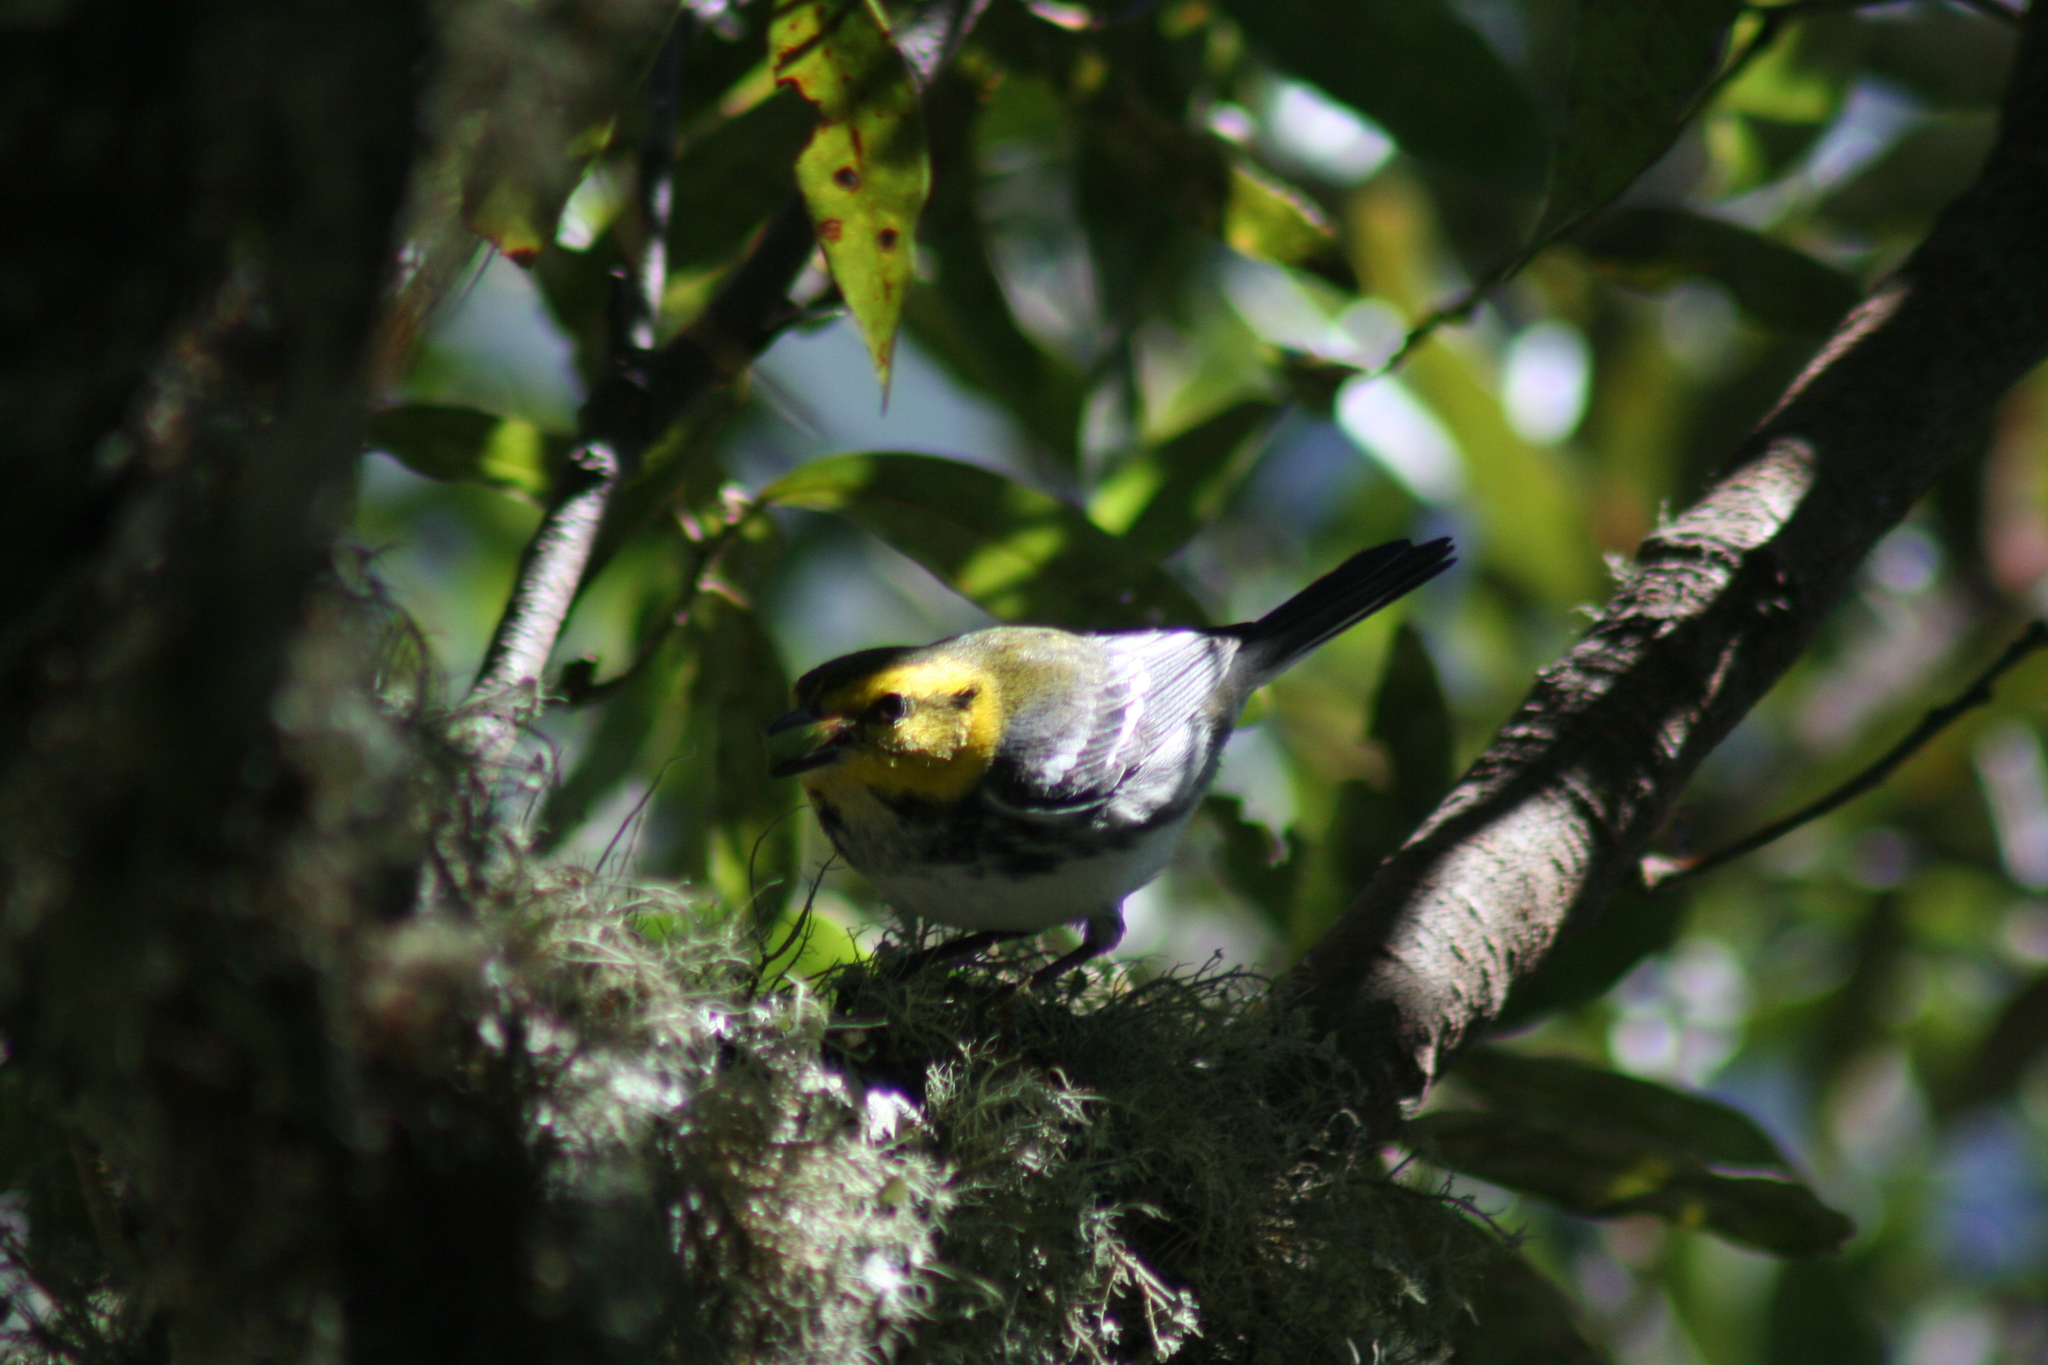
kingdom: Animalia
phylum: Chordata
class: Aves
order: Passeriformes
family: Parulidae
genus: Setophaga
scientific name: Setophaga chrysoparia
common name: Golden-cheeked warbler
